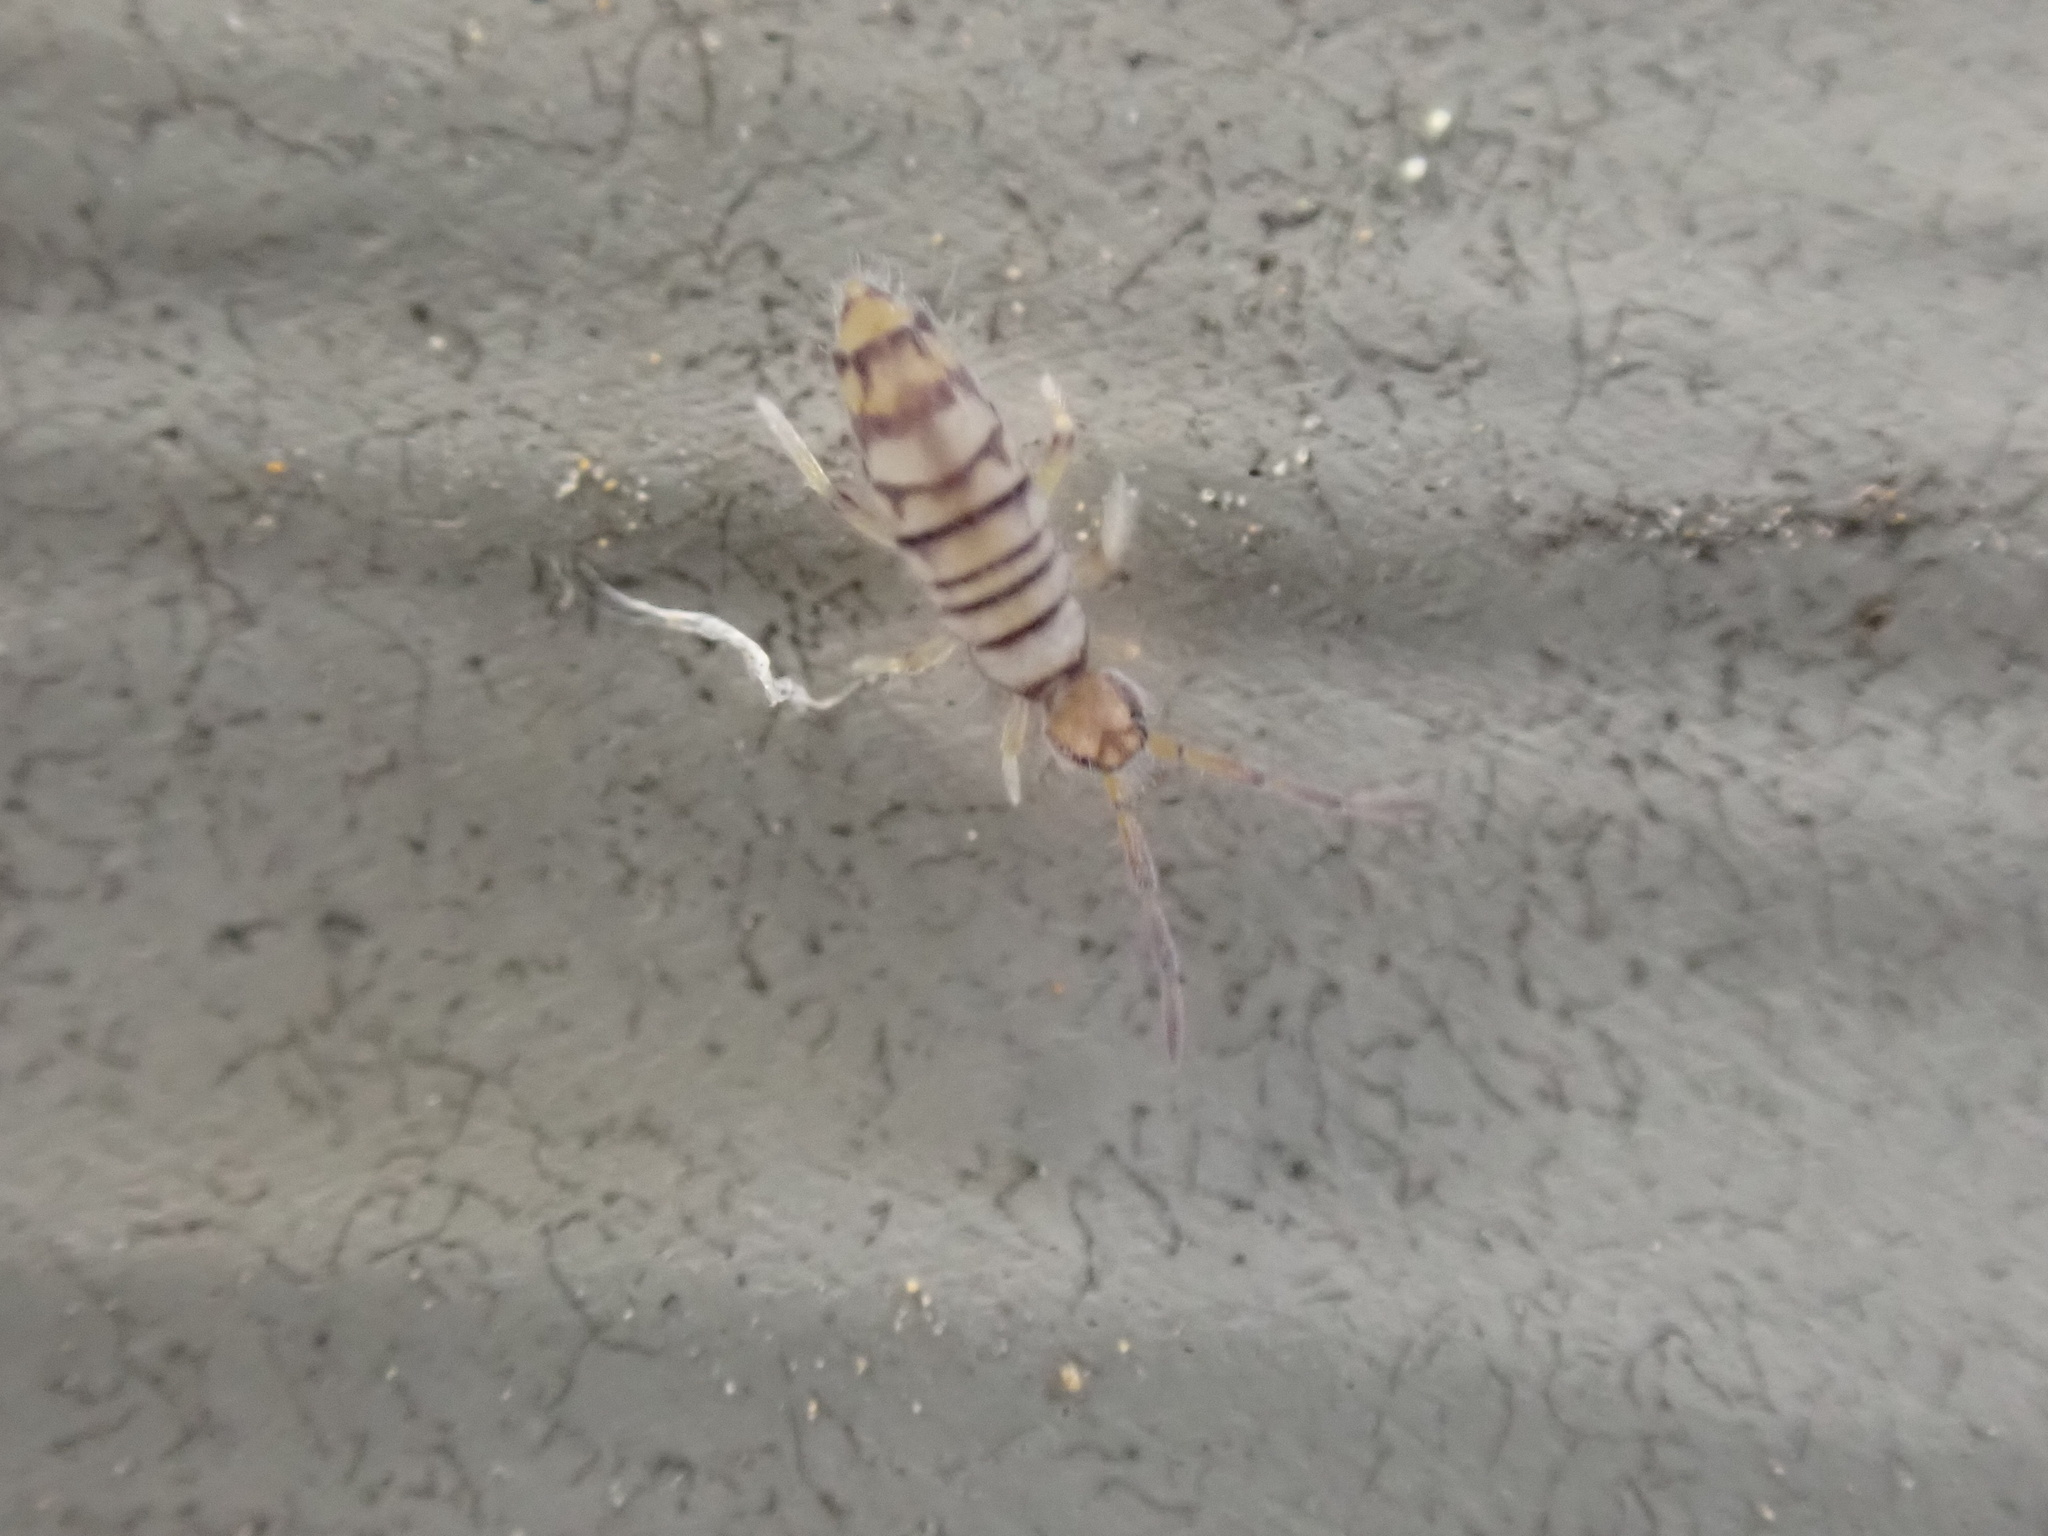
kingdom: Animalia
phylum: Arthropoda
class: Collembola
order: Entomobryomorpha
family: Entomobryidae
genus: Entomobrya
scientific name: Entomobrya atrocincta
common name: Springtail
